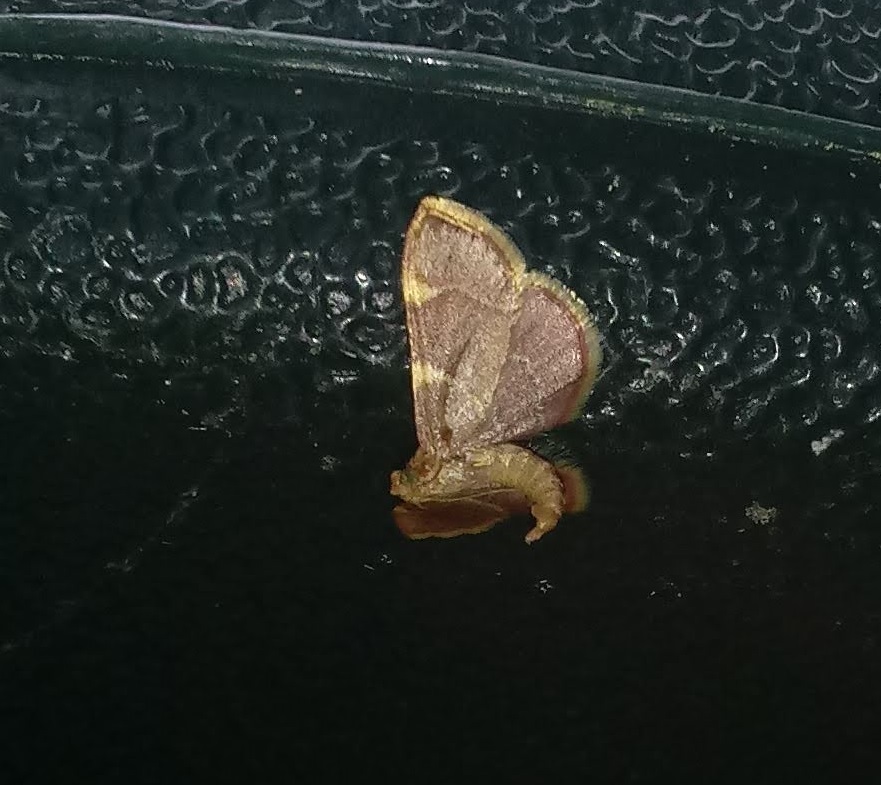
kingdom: Animalia
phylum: Arthropoda
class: Insecta
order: Lepidoptera
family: Pyralidae
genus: Hypsopygia
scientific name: Hypsopygia olinalis
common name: Yellow-fringed dolichomia moth
